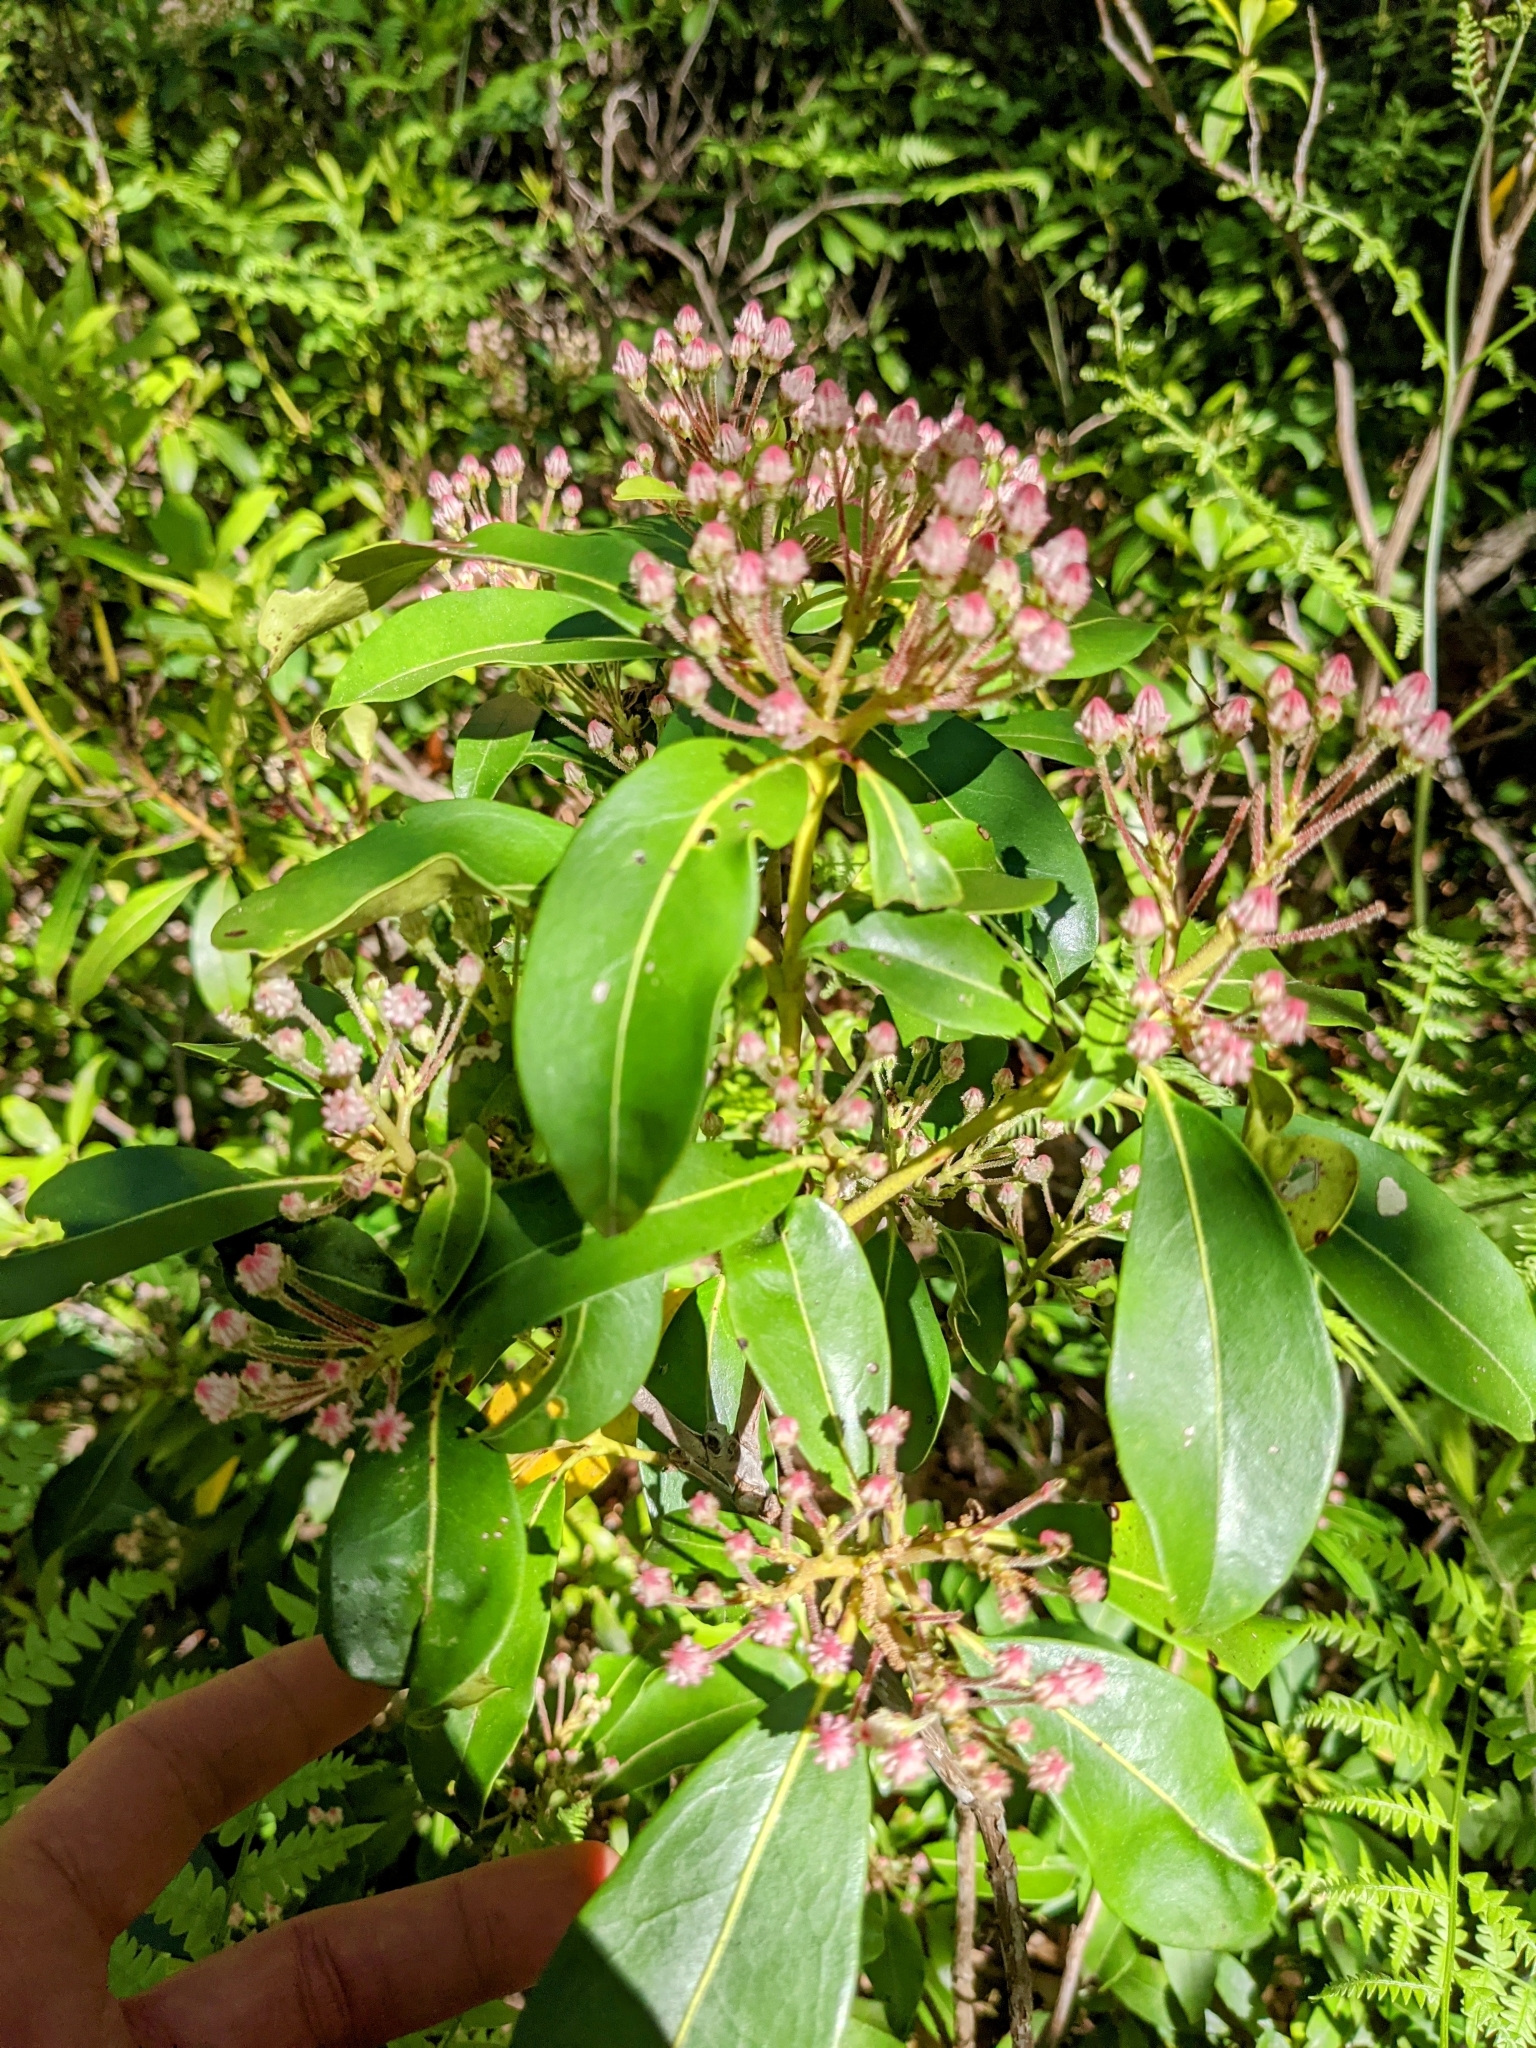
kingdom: Plantae
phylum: Tracheophyta
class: Magnoliopsida
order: Ericales
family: Ericaceae
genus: Kalmia
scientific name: Kalmia latifolia
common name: Mountain-laurel
